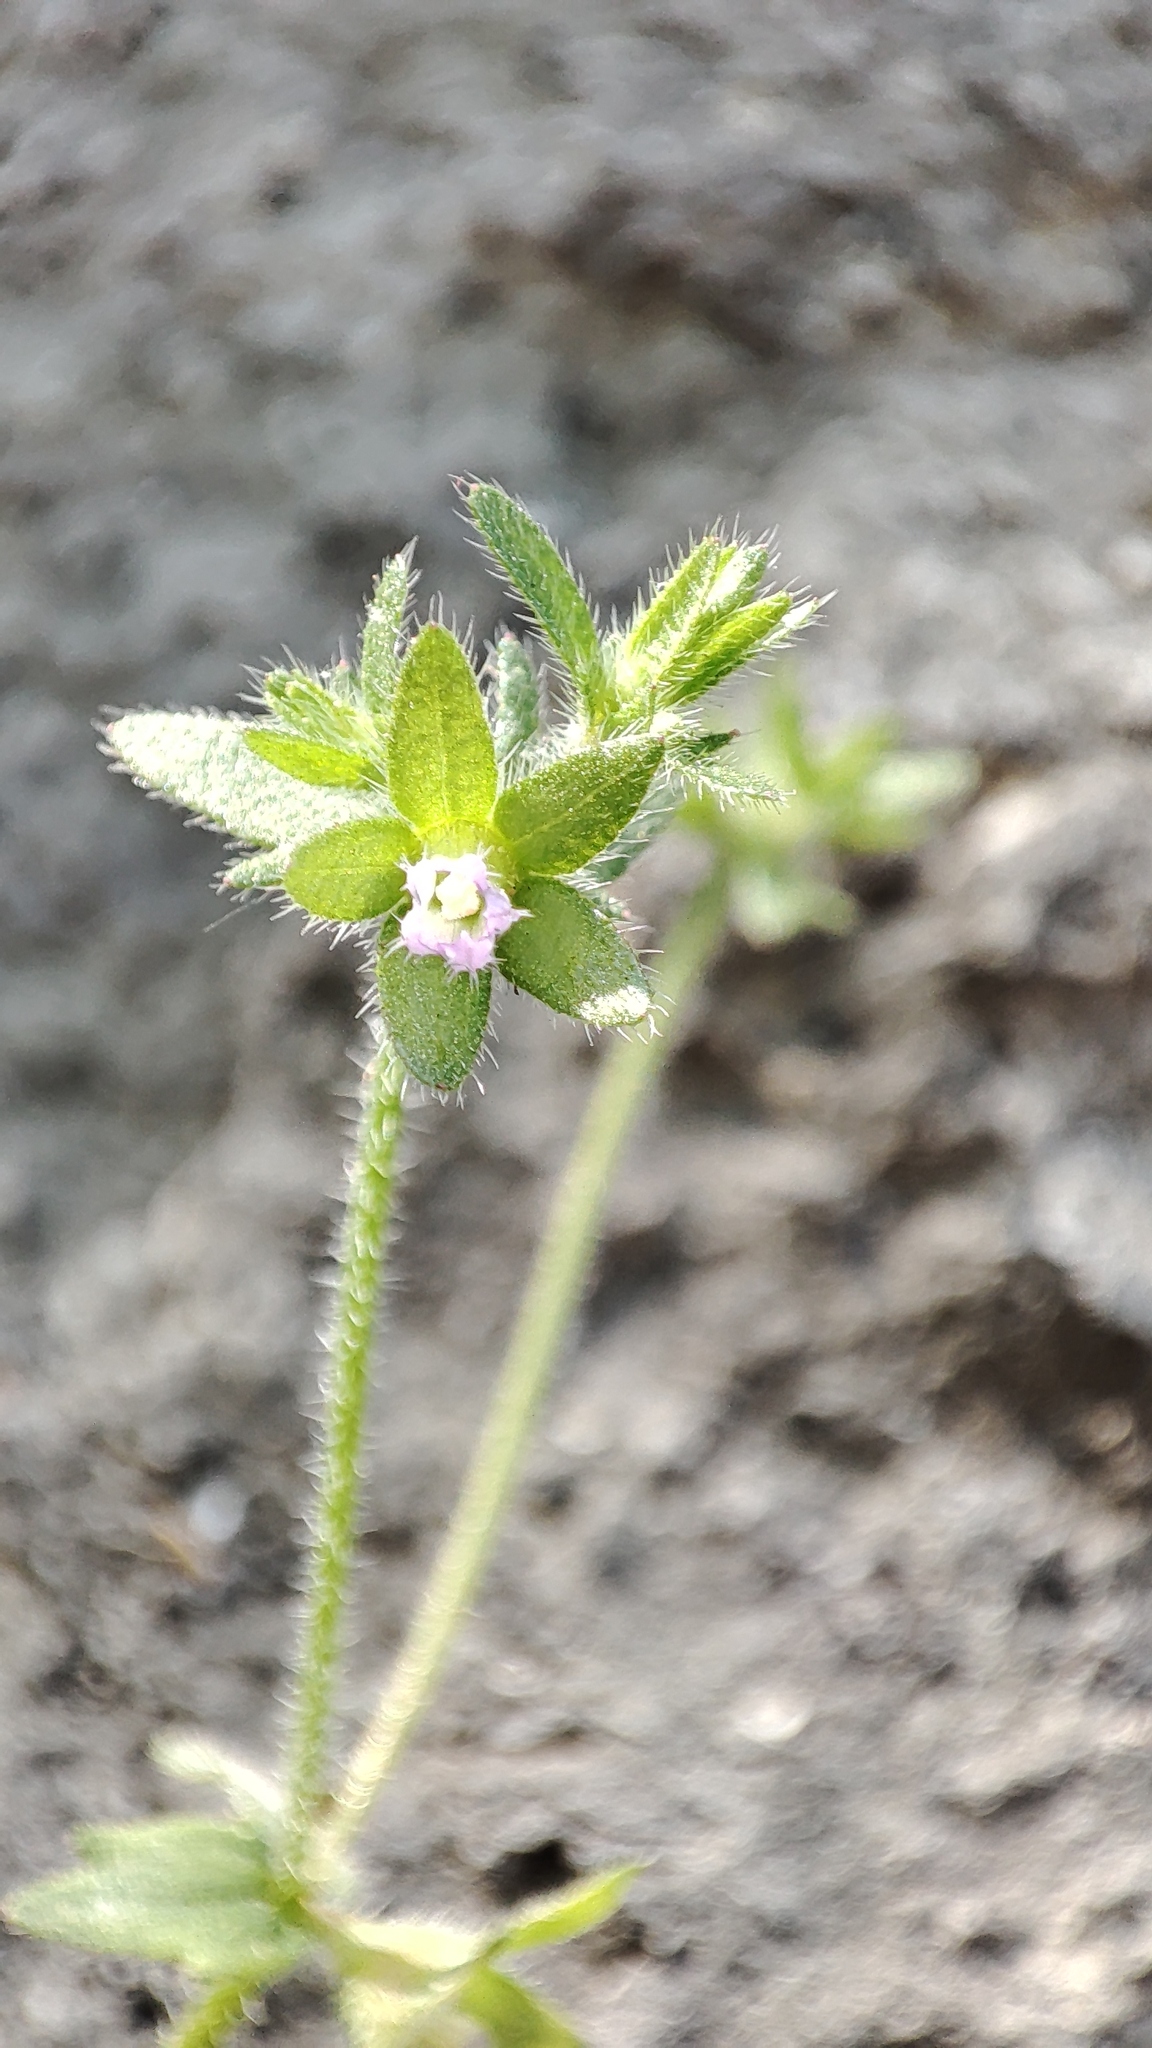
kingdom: Plantae
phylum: Tracheophyta
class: Magnoliopsida
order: Asterales
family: Campanulaceae
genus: Campanula
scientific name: Campanula erinus
